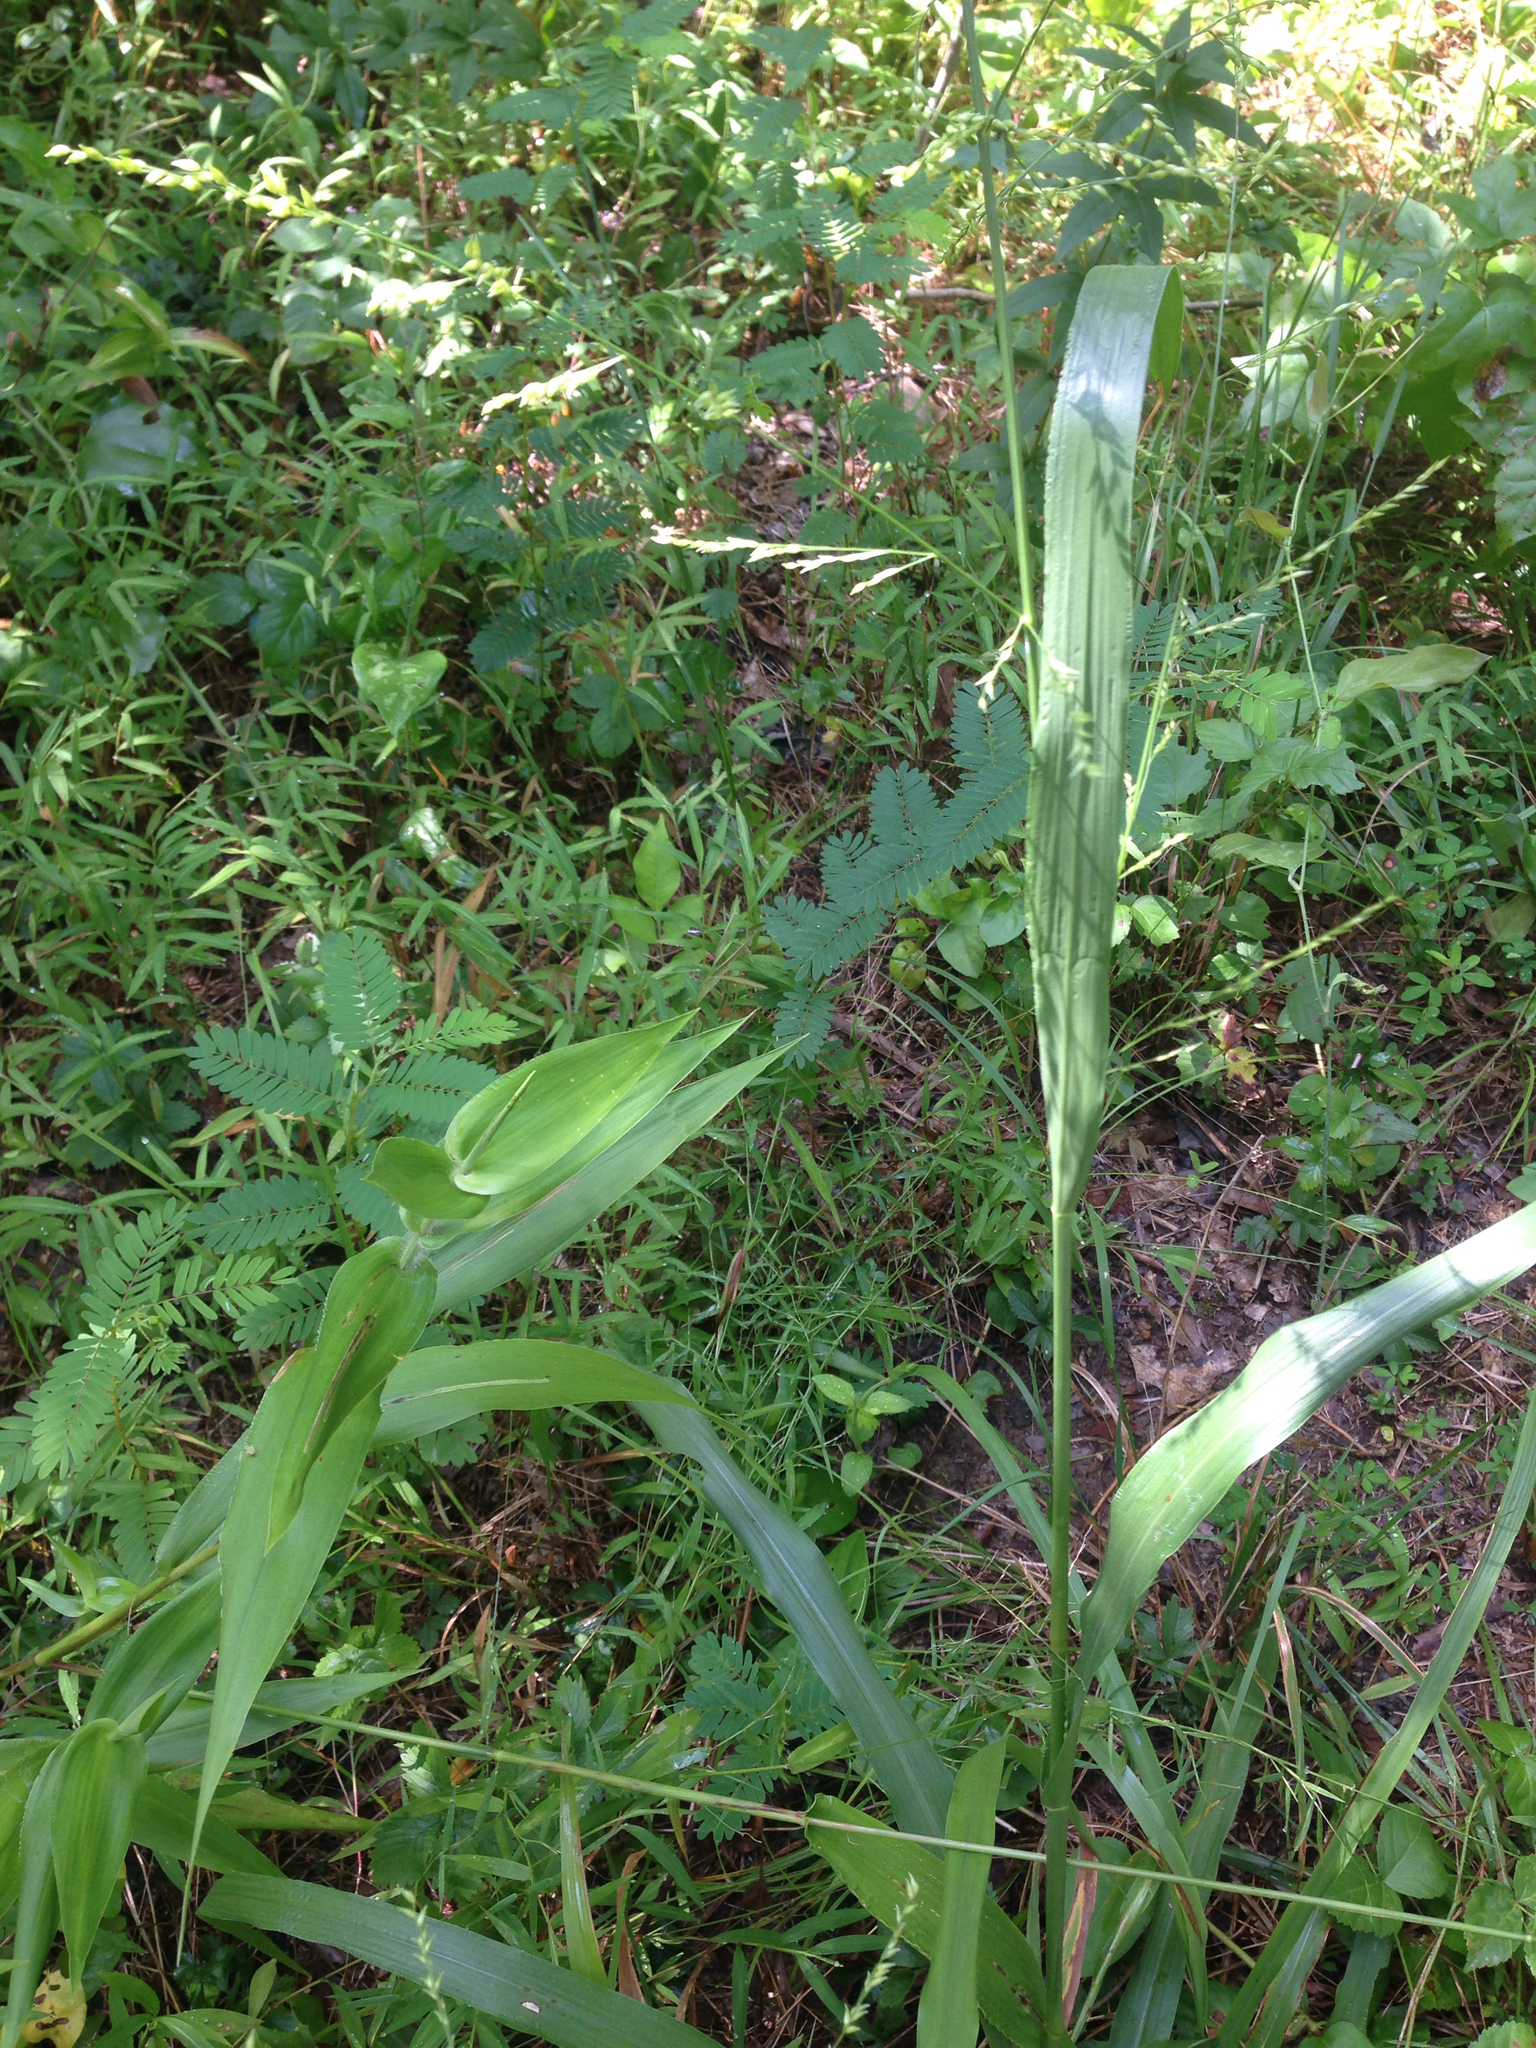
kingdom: Plantae
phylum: Tracheophyta
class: Liliopsida
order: Poales
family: Poaceae
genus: Coleataenia
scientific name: Coleataenia anceps
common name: Beaked panic grass
